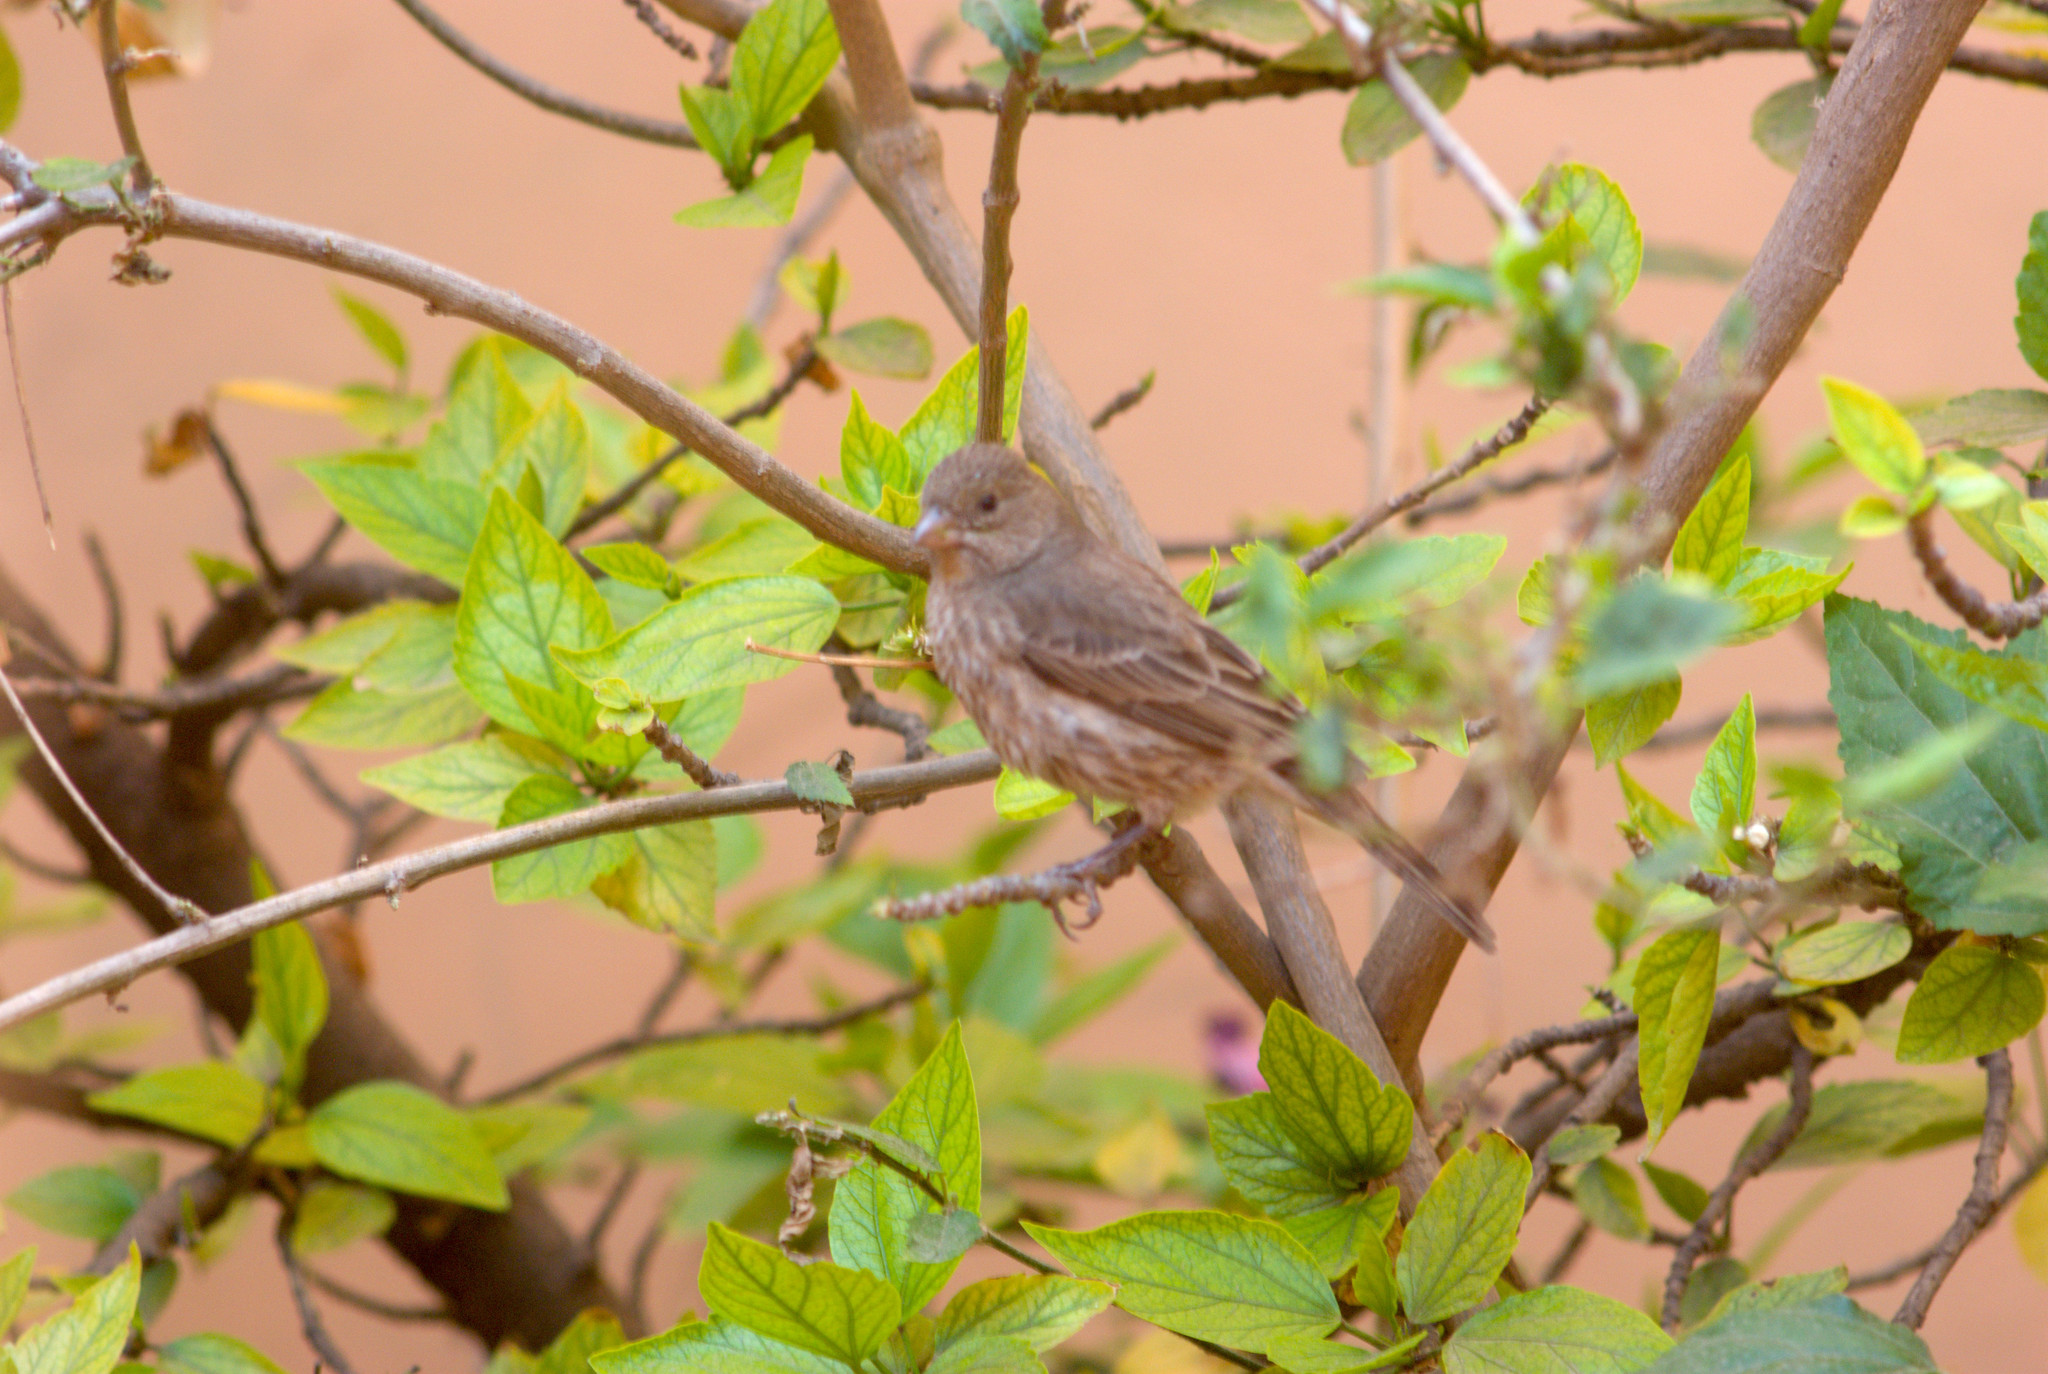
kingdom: Animalia
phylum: Chordata
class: Aves
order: Passeriformes
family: Fringillidae
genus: Haemorhous
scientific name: Haemorhous mexicanus
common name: House finch
